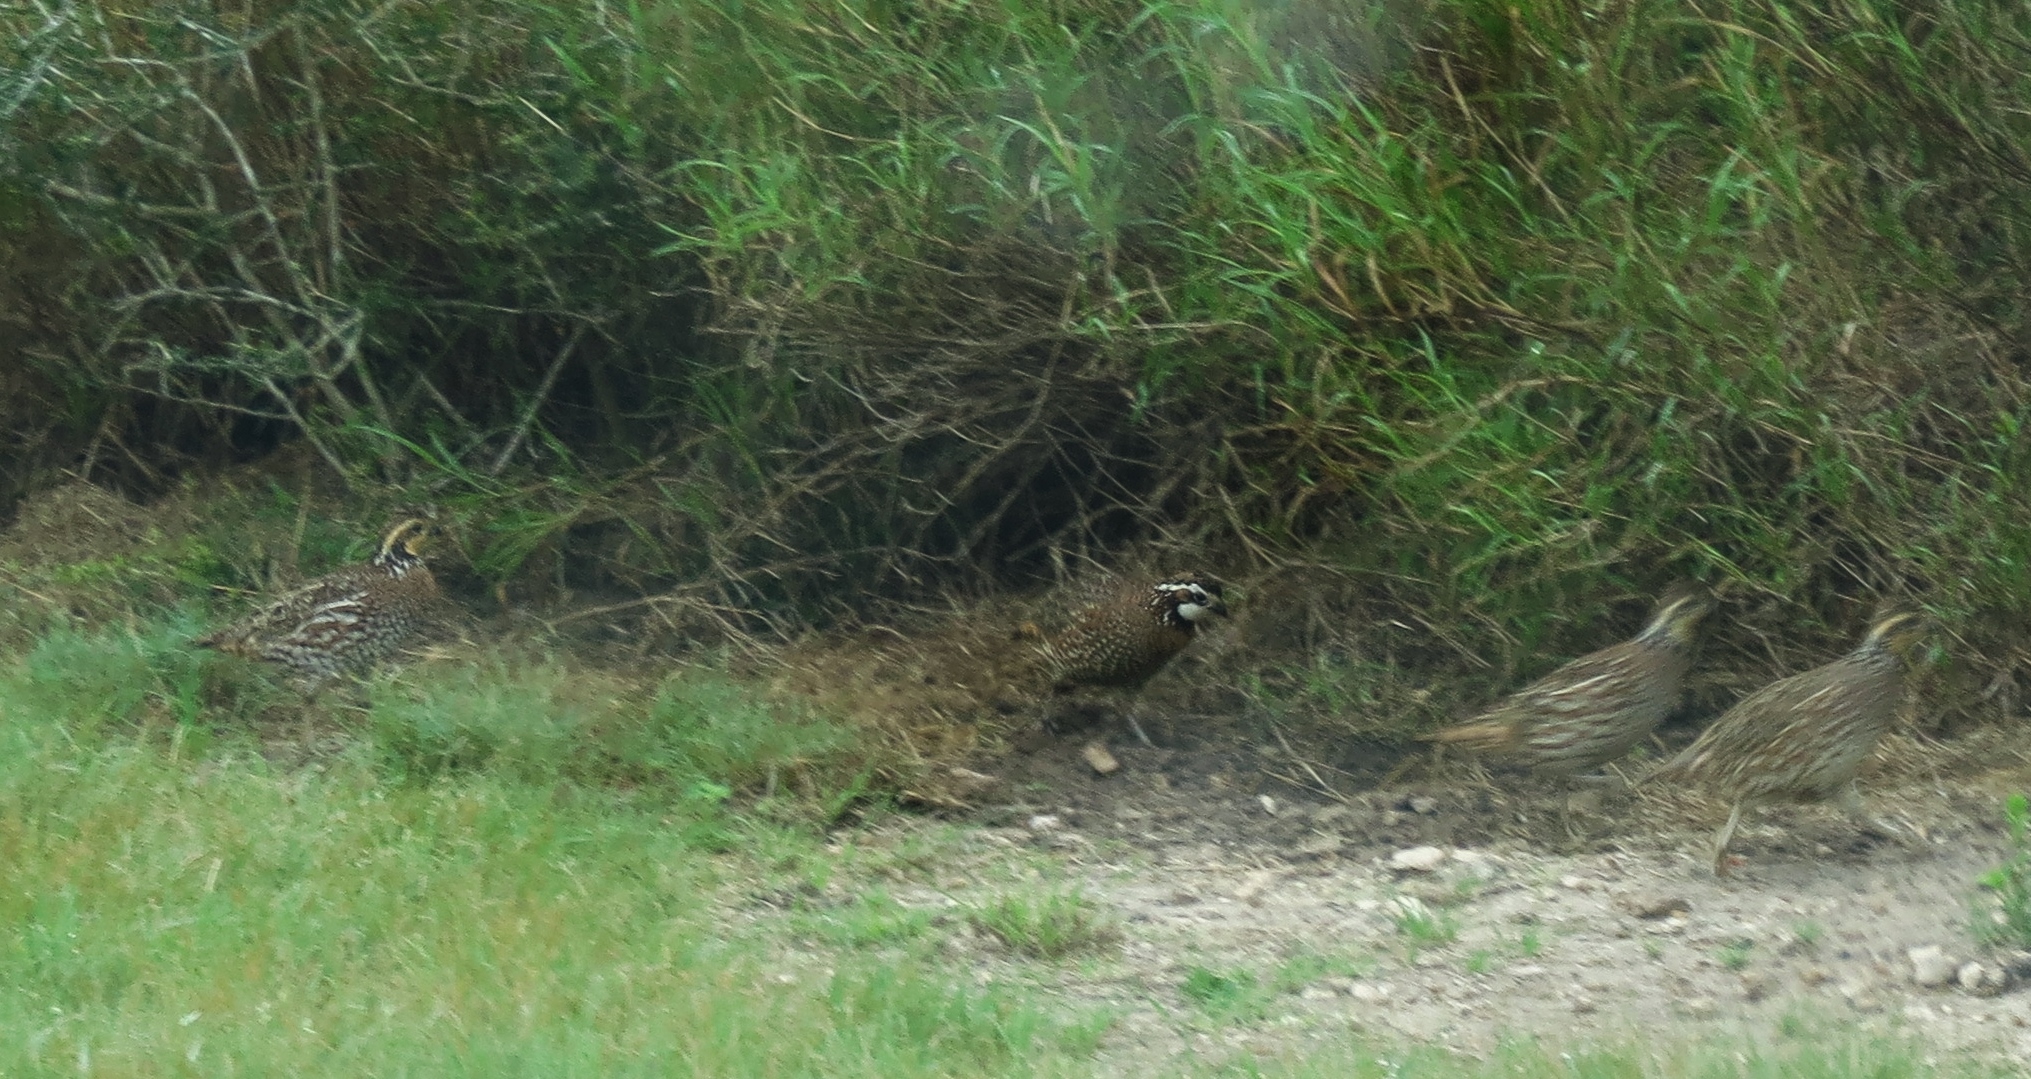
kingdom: Animalia
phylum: Chordata
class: Aves
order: Galliformes
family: Odontophoridae
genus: Colinus
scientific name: Colinus virginianus
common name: Northern bobwhite
